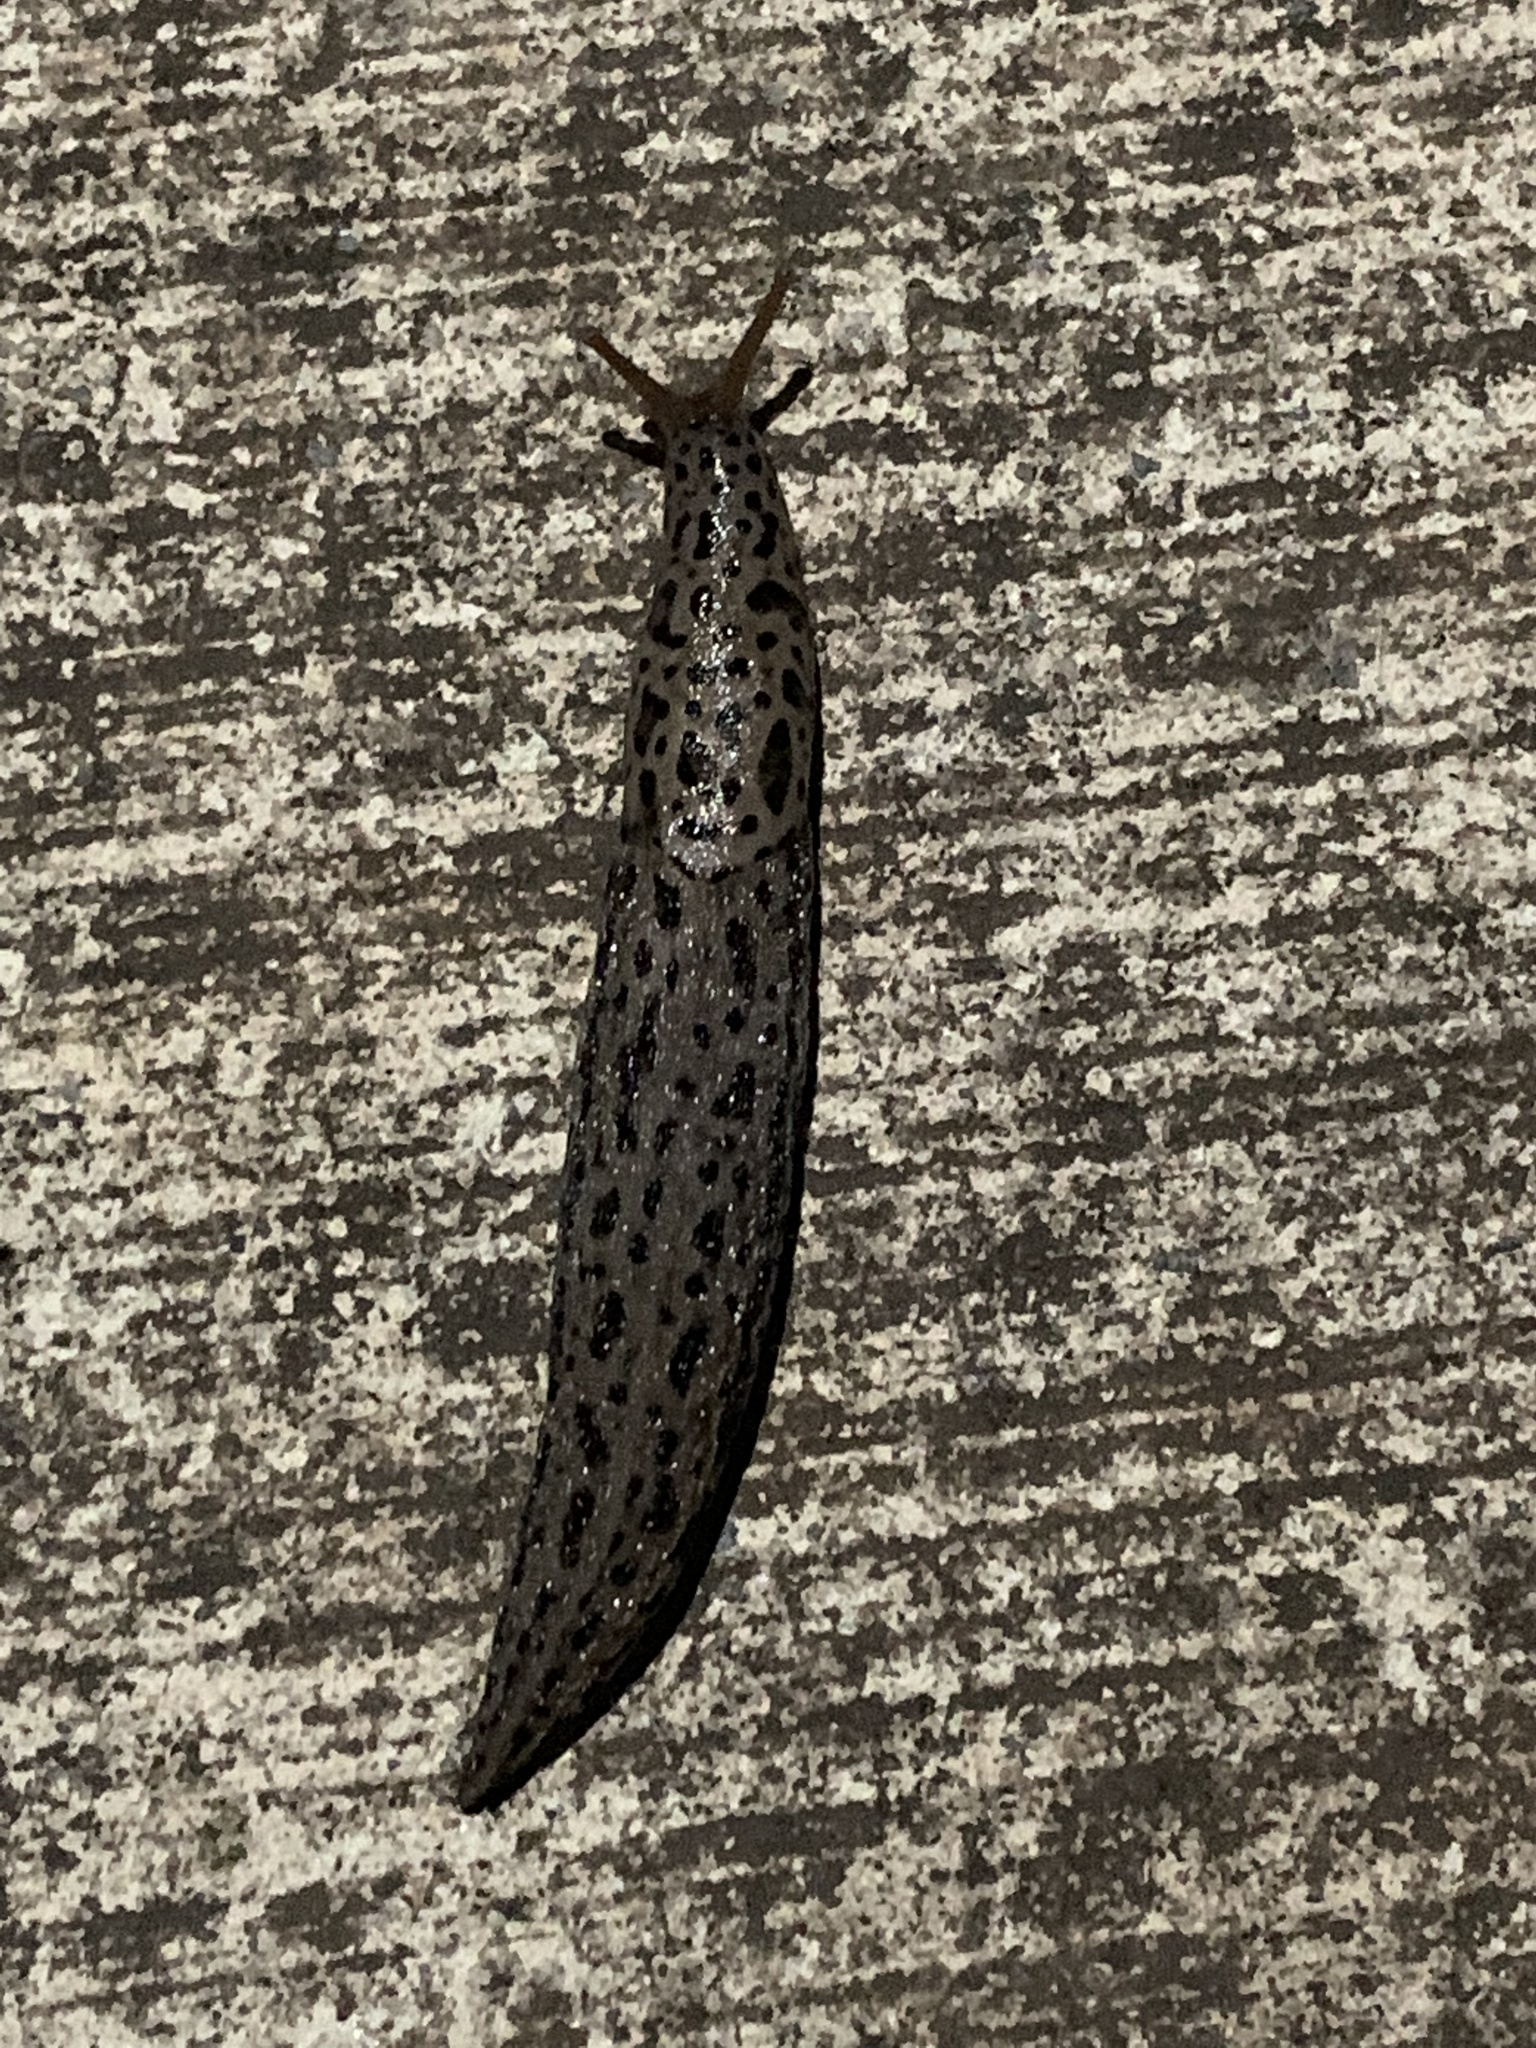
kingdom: Animalia
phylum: Mollusca
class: Gastropoda
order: Stylommatophora
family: Limacidae
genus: Limax
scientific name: Limax maximus
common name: Great grey slug
